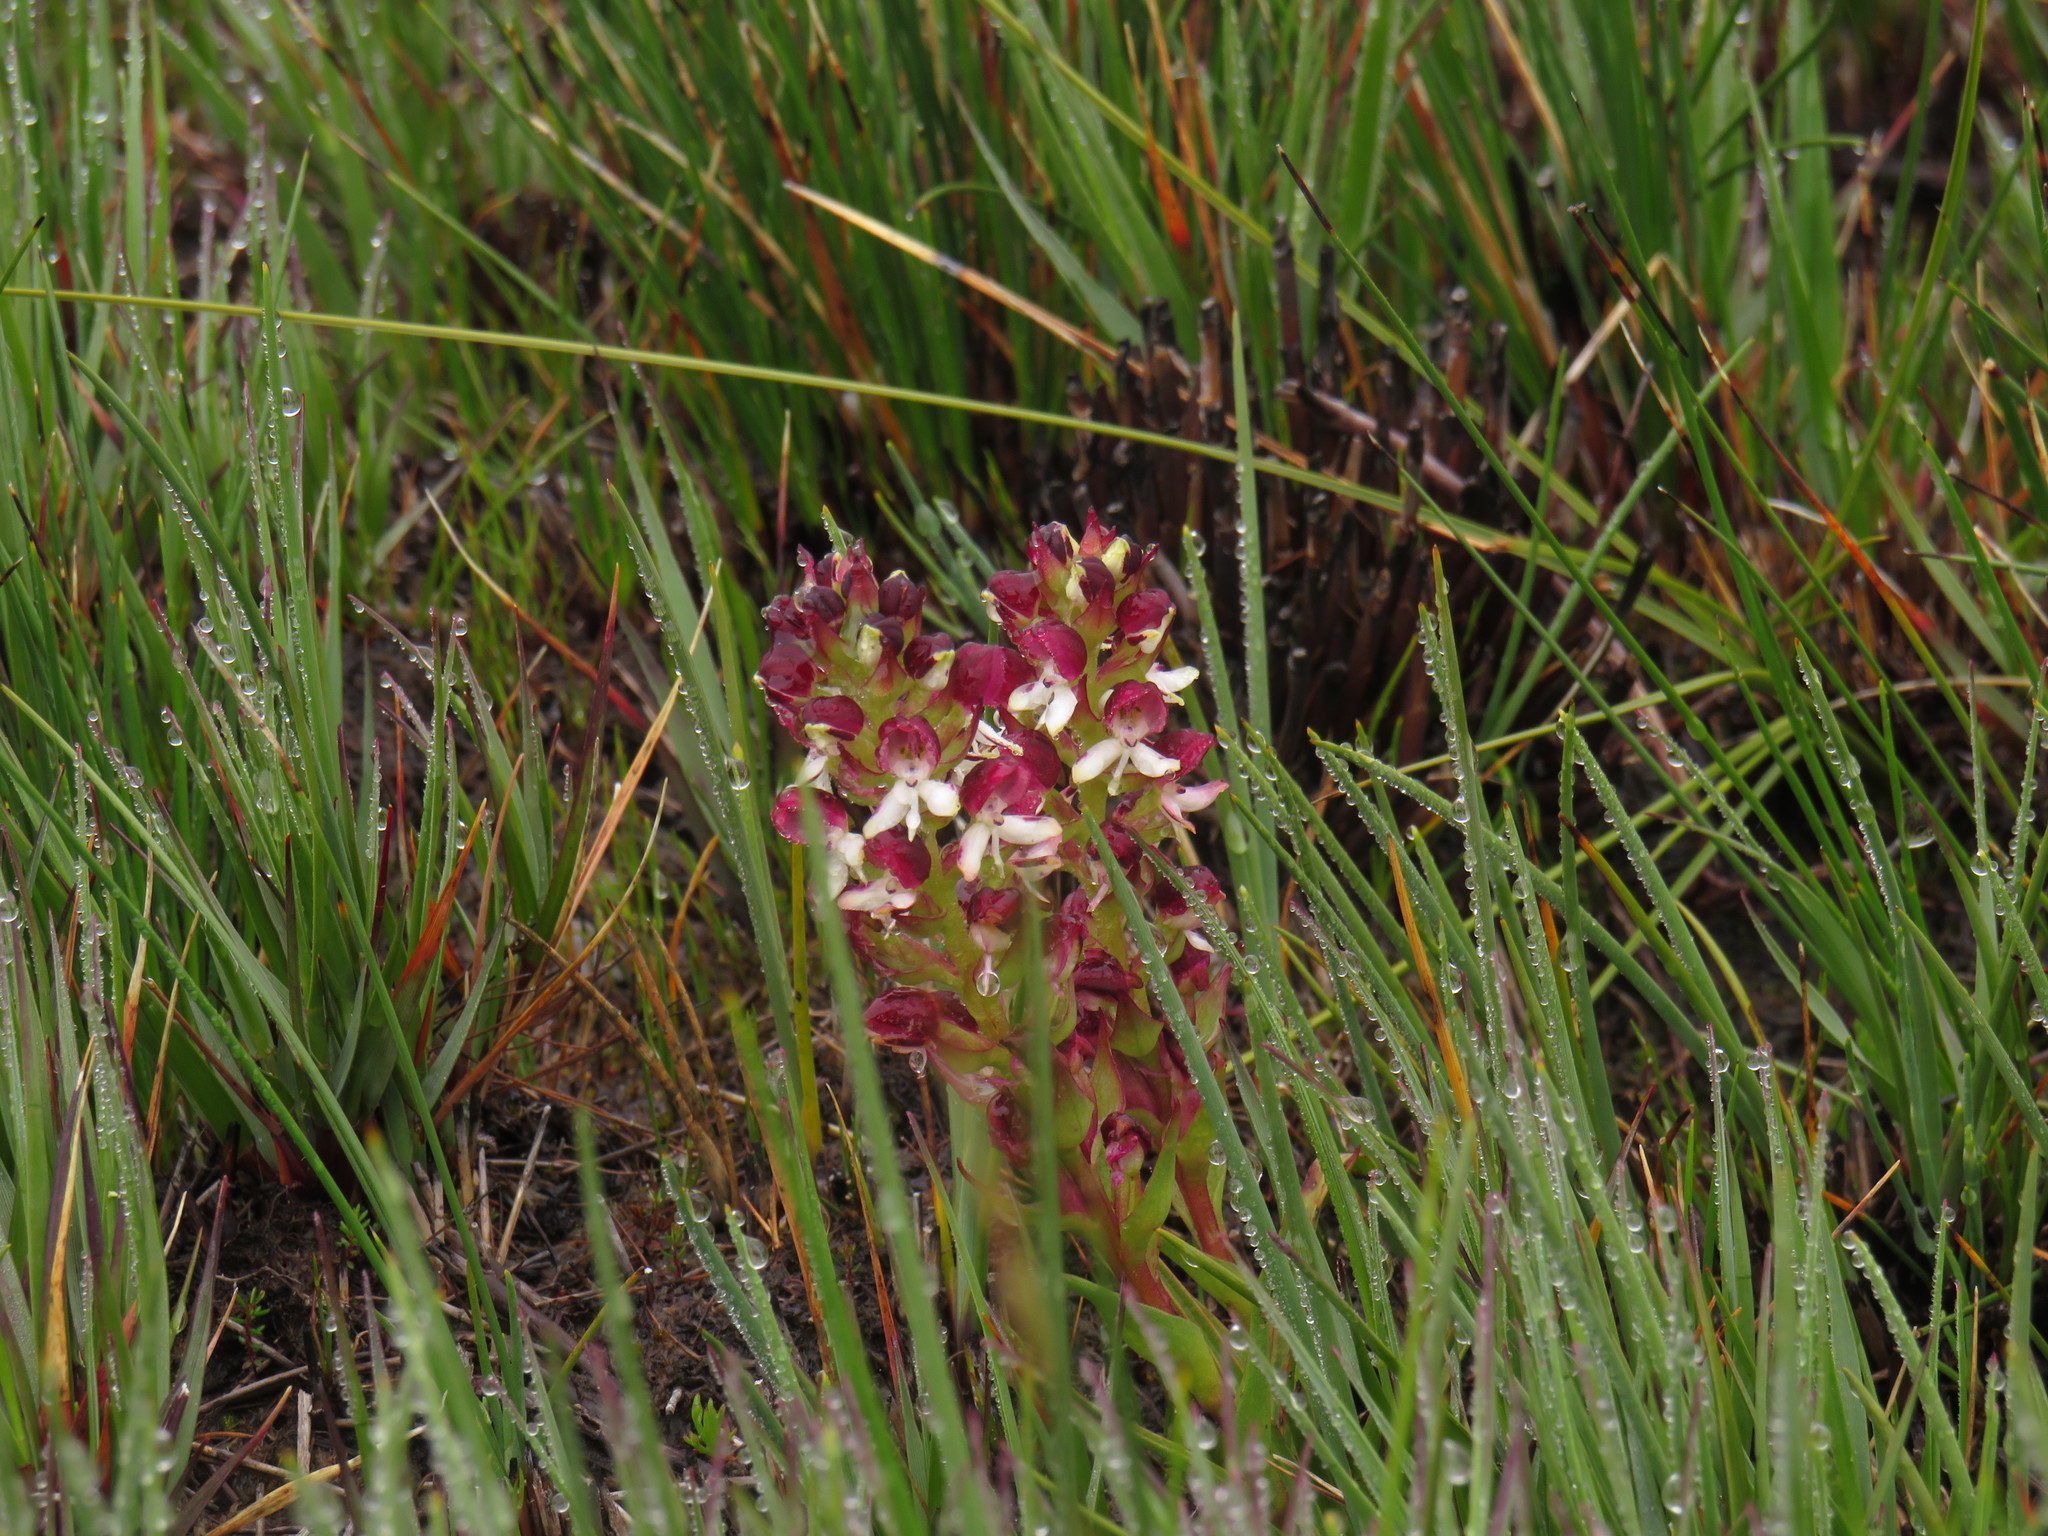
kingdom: Plantae
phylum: Tracheophyta
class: Liliopsida
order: Asparagales
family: Orchidaceae
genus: Disa
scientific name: Disa albomagentea
